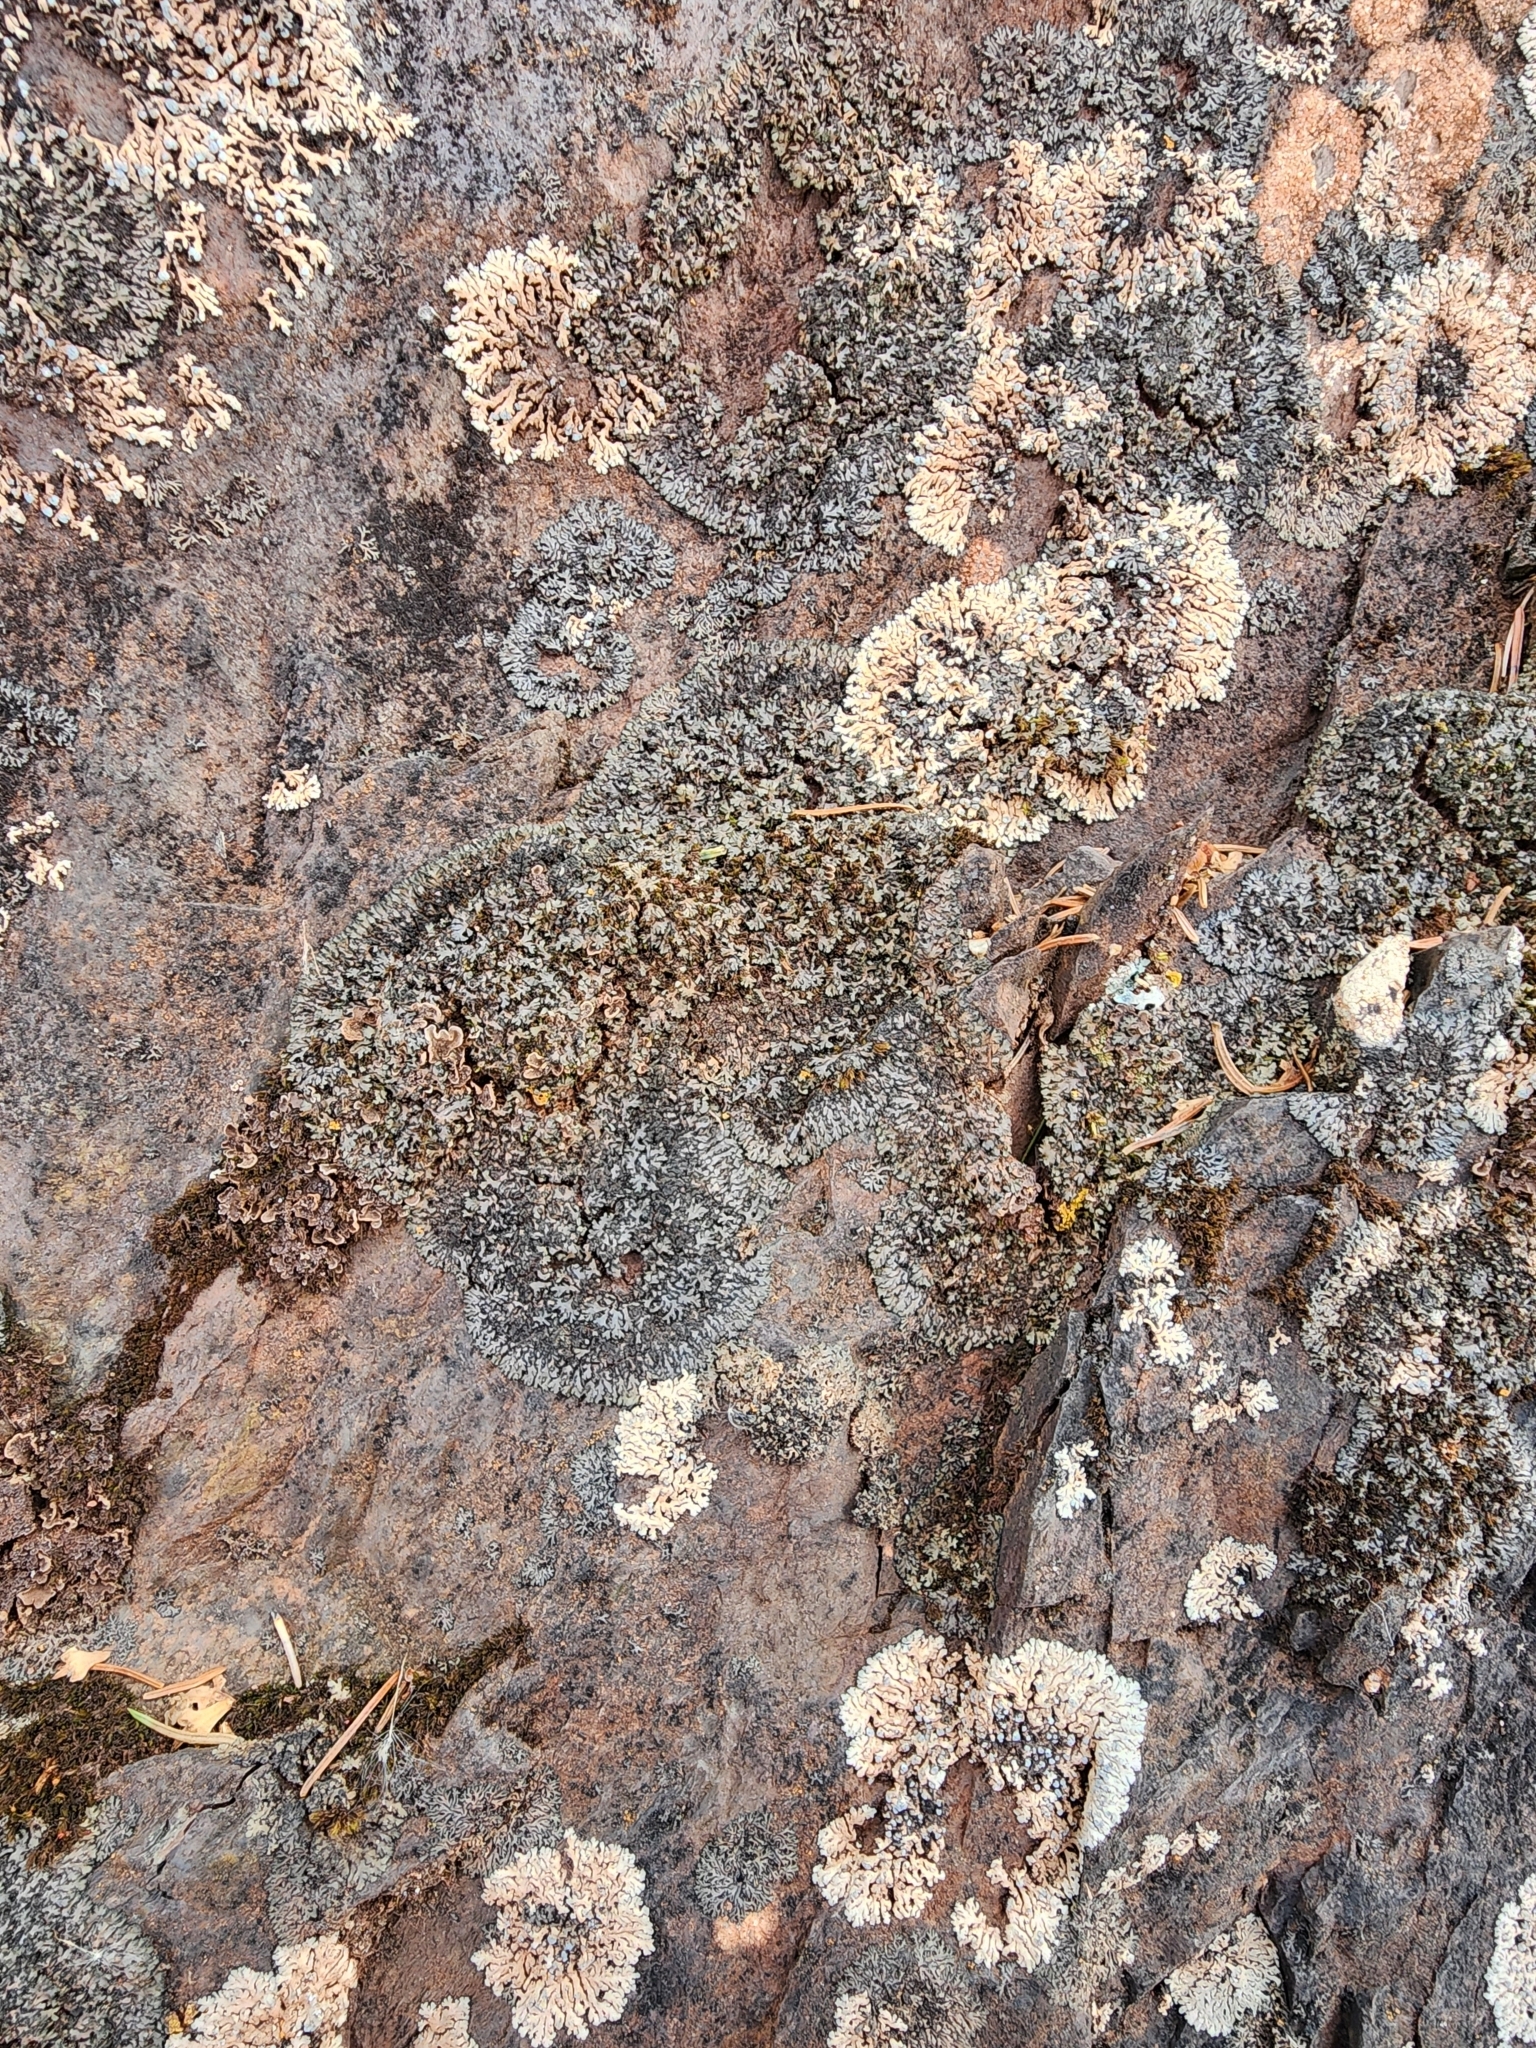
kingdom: Fungi
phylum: Ascomycota
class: Lecanoromycetes
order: Caliciales
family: Physciaceae
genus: Phaeophyscia
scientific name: Phaeophyscia sciastra
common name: Dark shadow lichen
